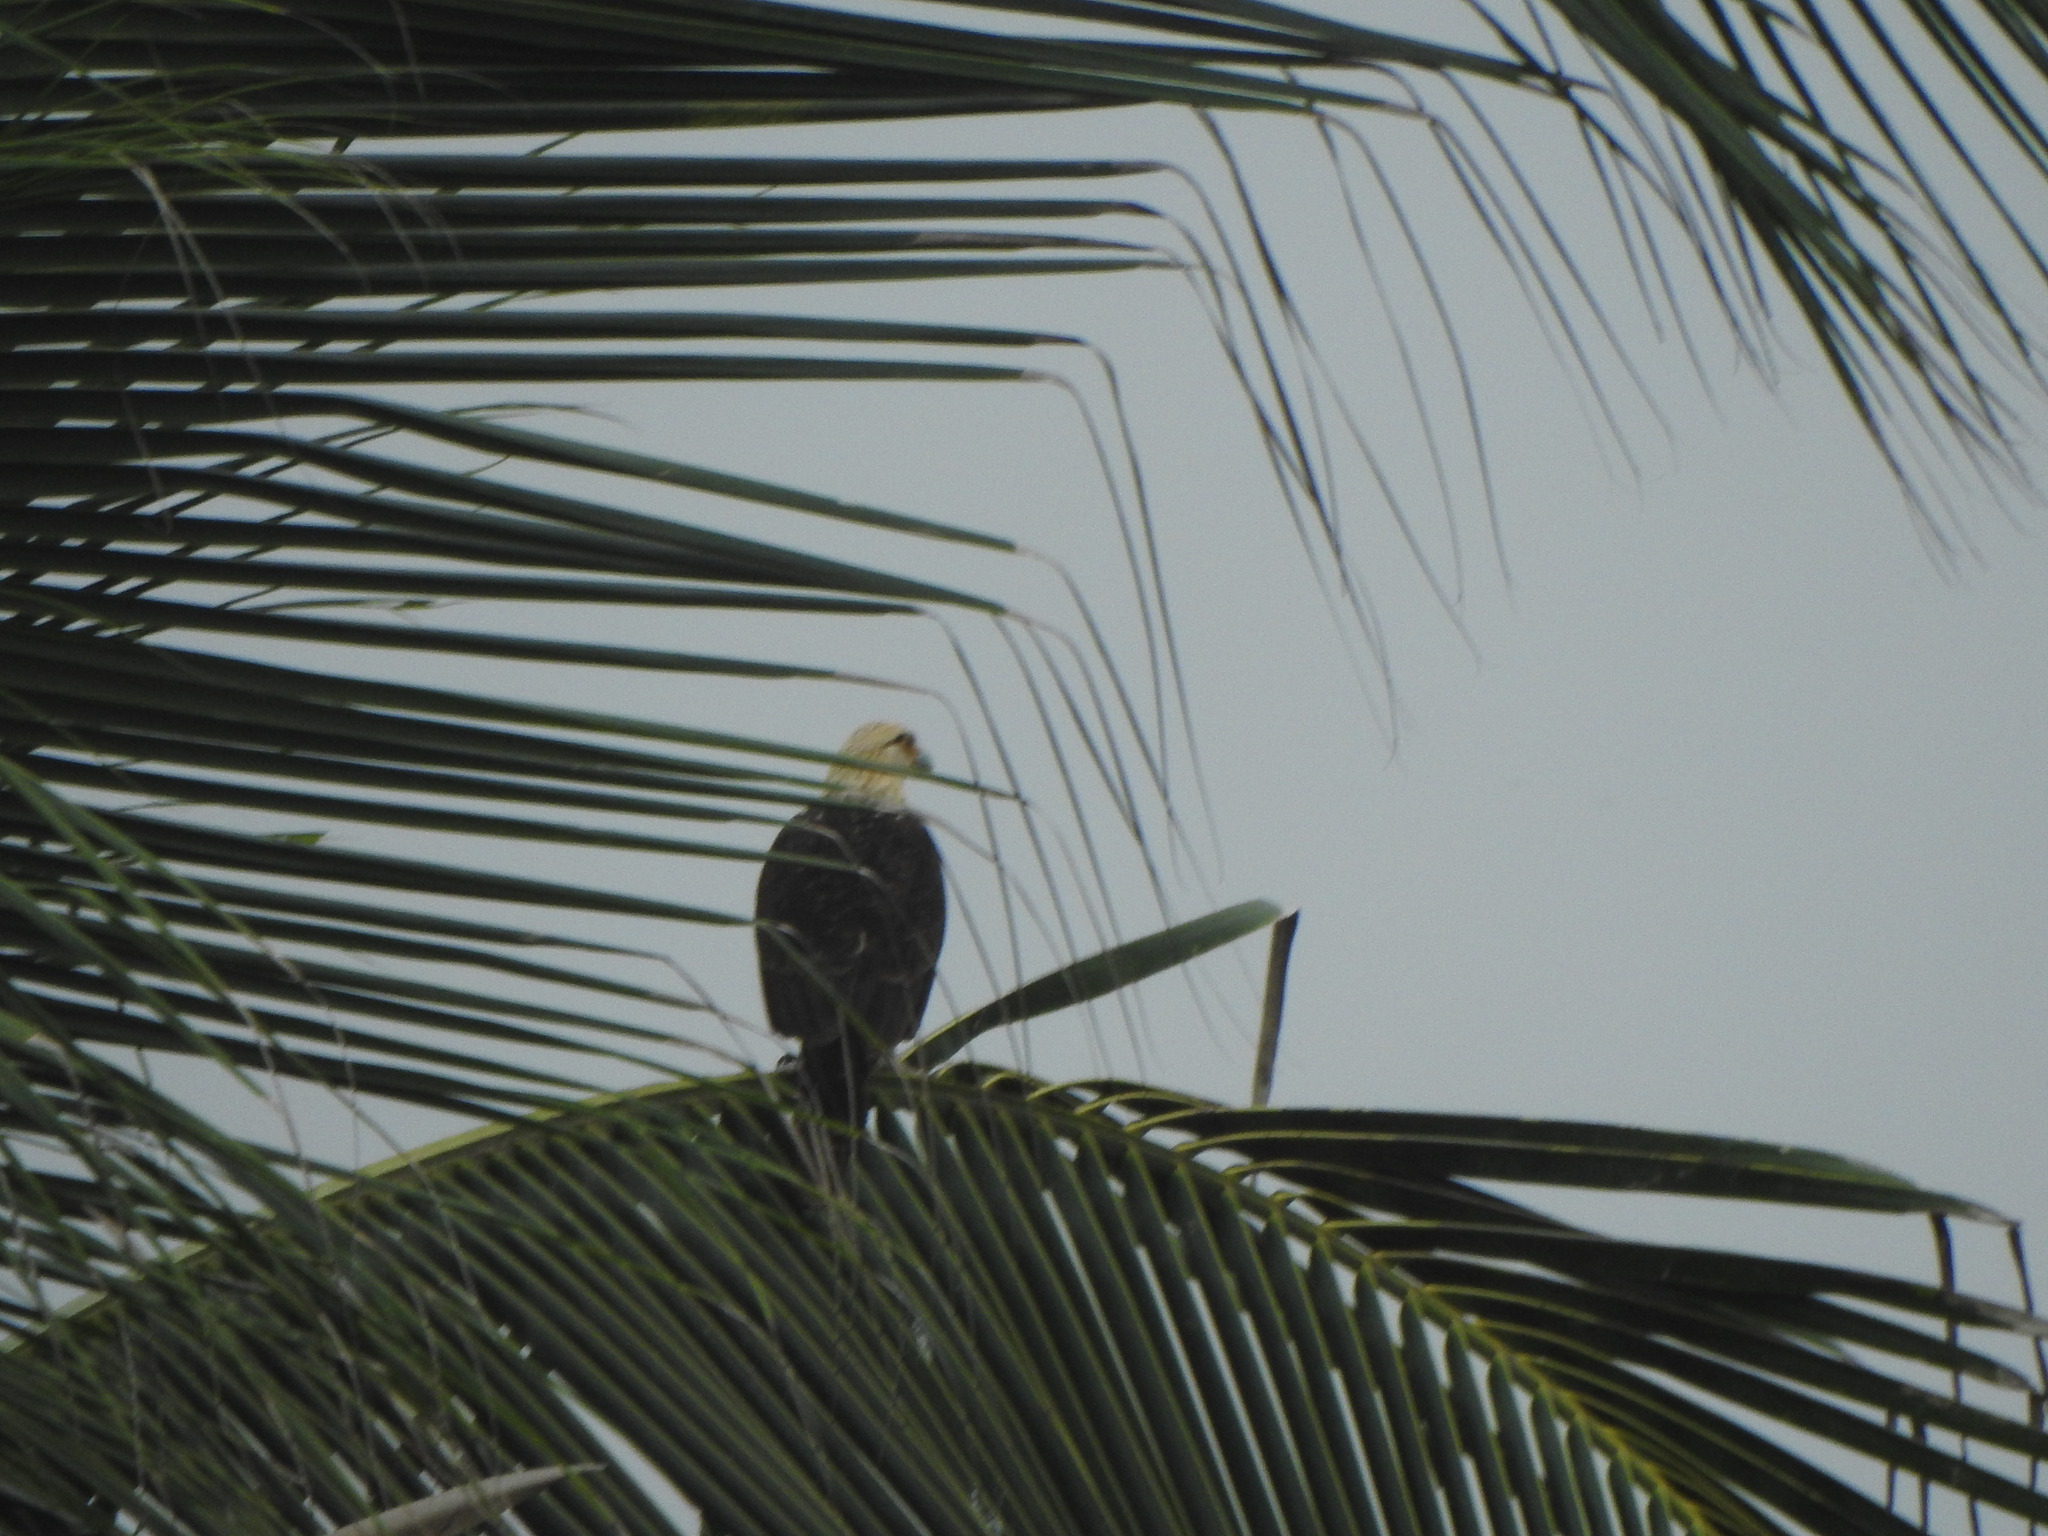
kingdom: Animalia
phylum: Chordata
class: Aves
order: Falconiformes
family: Falconidae
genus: Daptrius
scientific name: Daptrius
